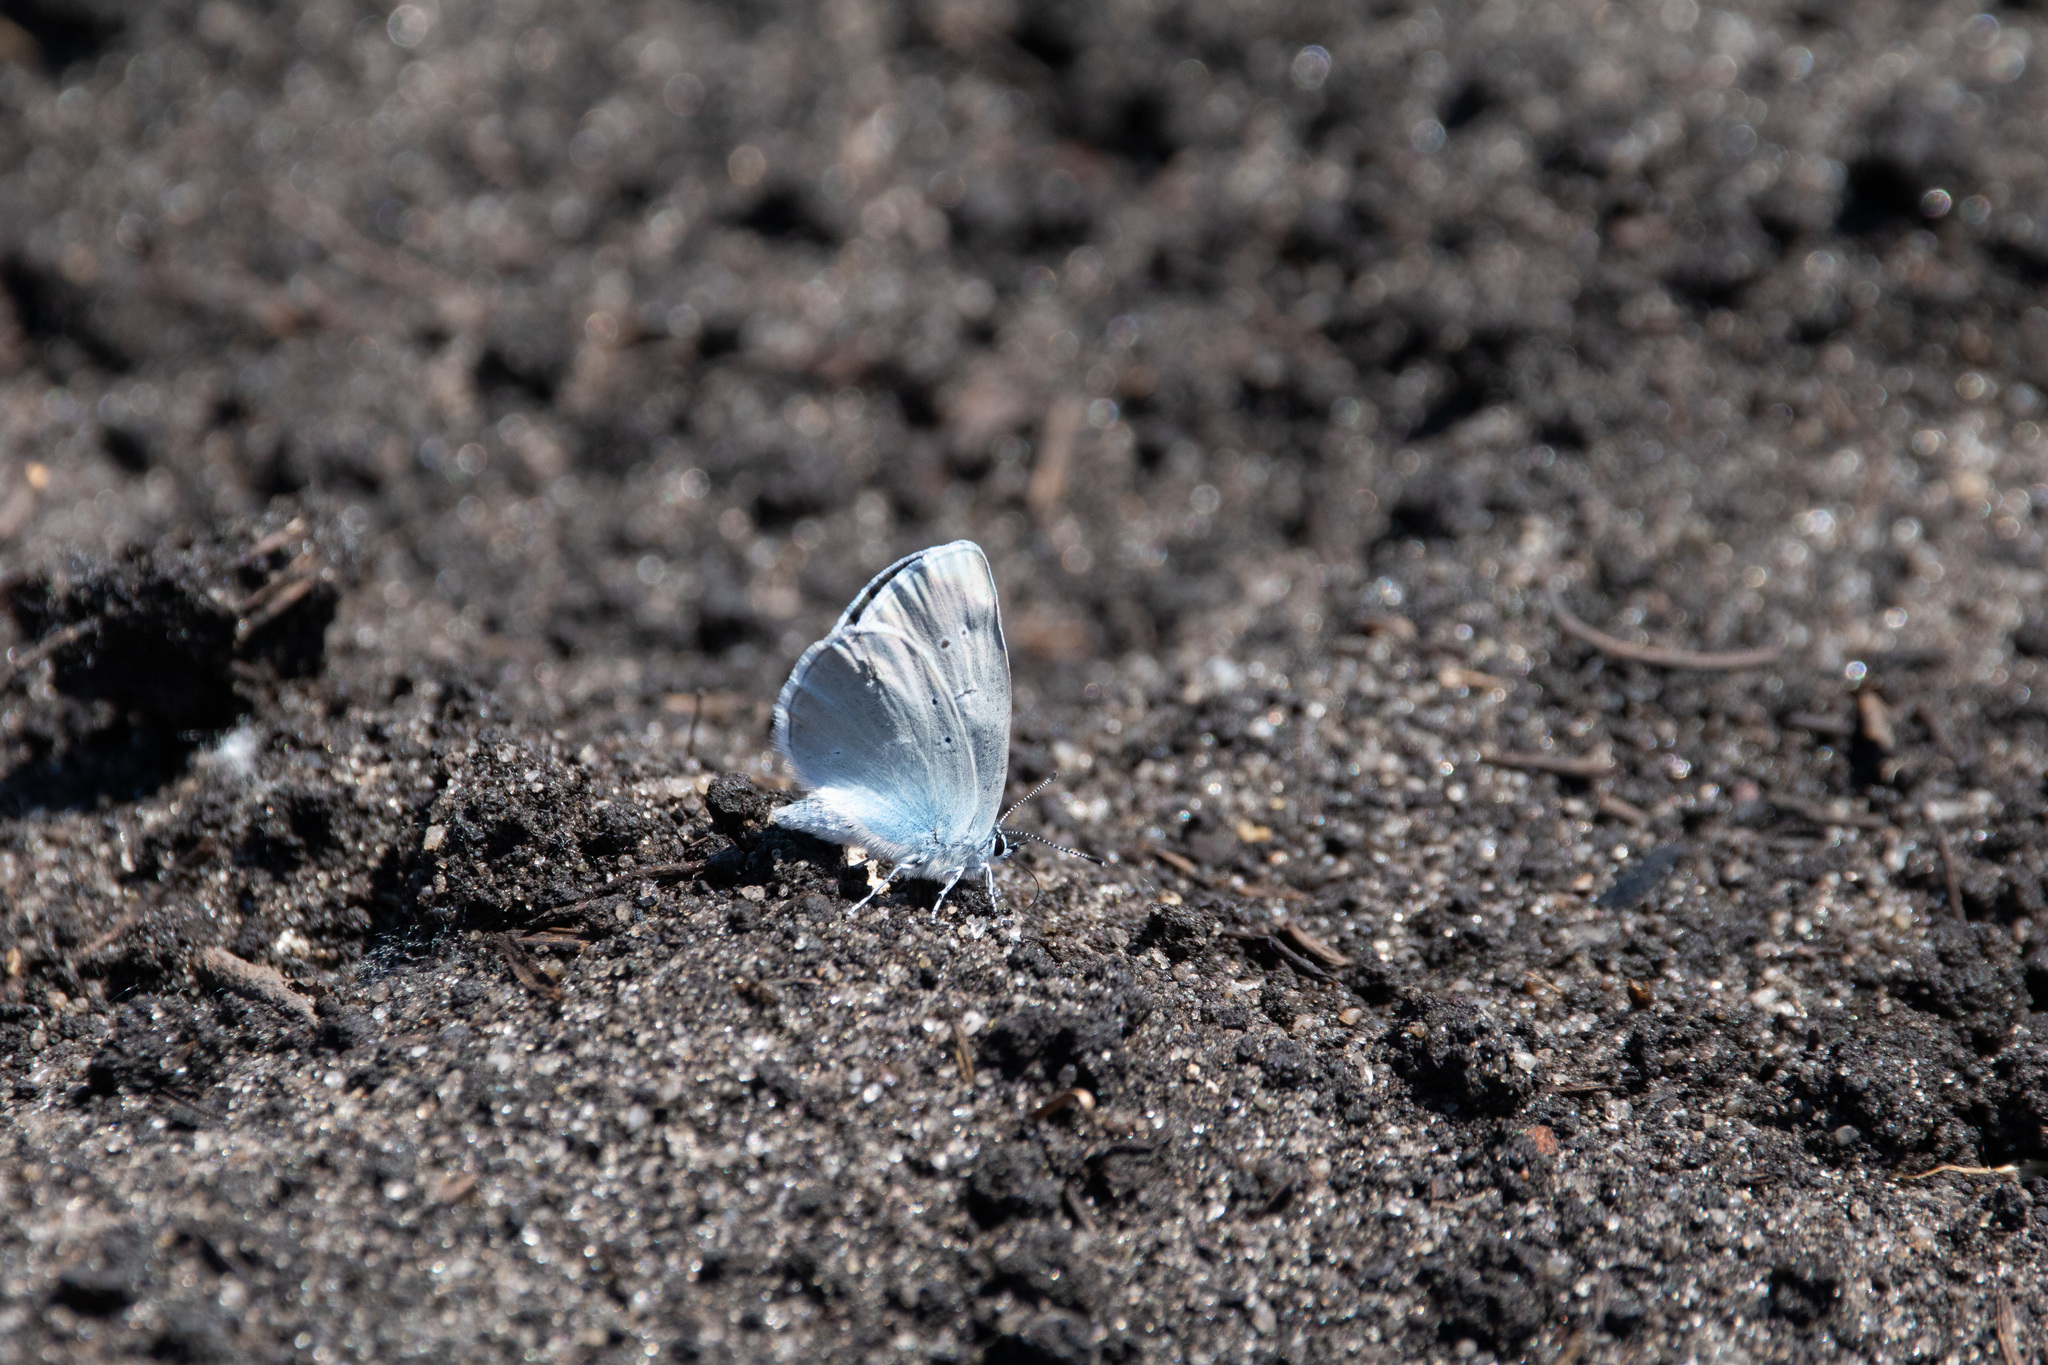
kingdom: Animalia
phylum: Arthropoda
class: Insecta
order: Lepidoptera
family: Lycaenidae
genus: Everes
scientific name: Everes sebrus
